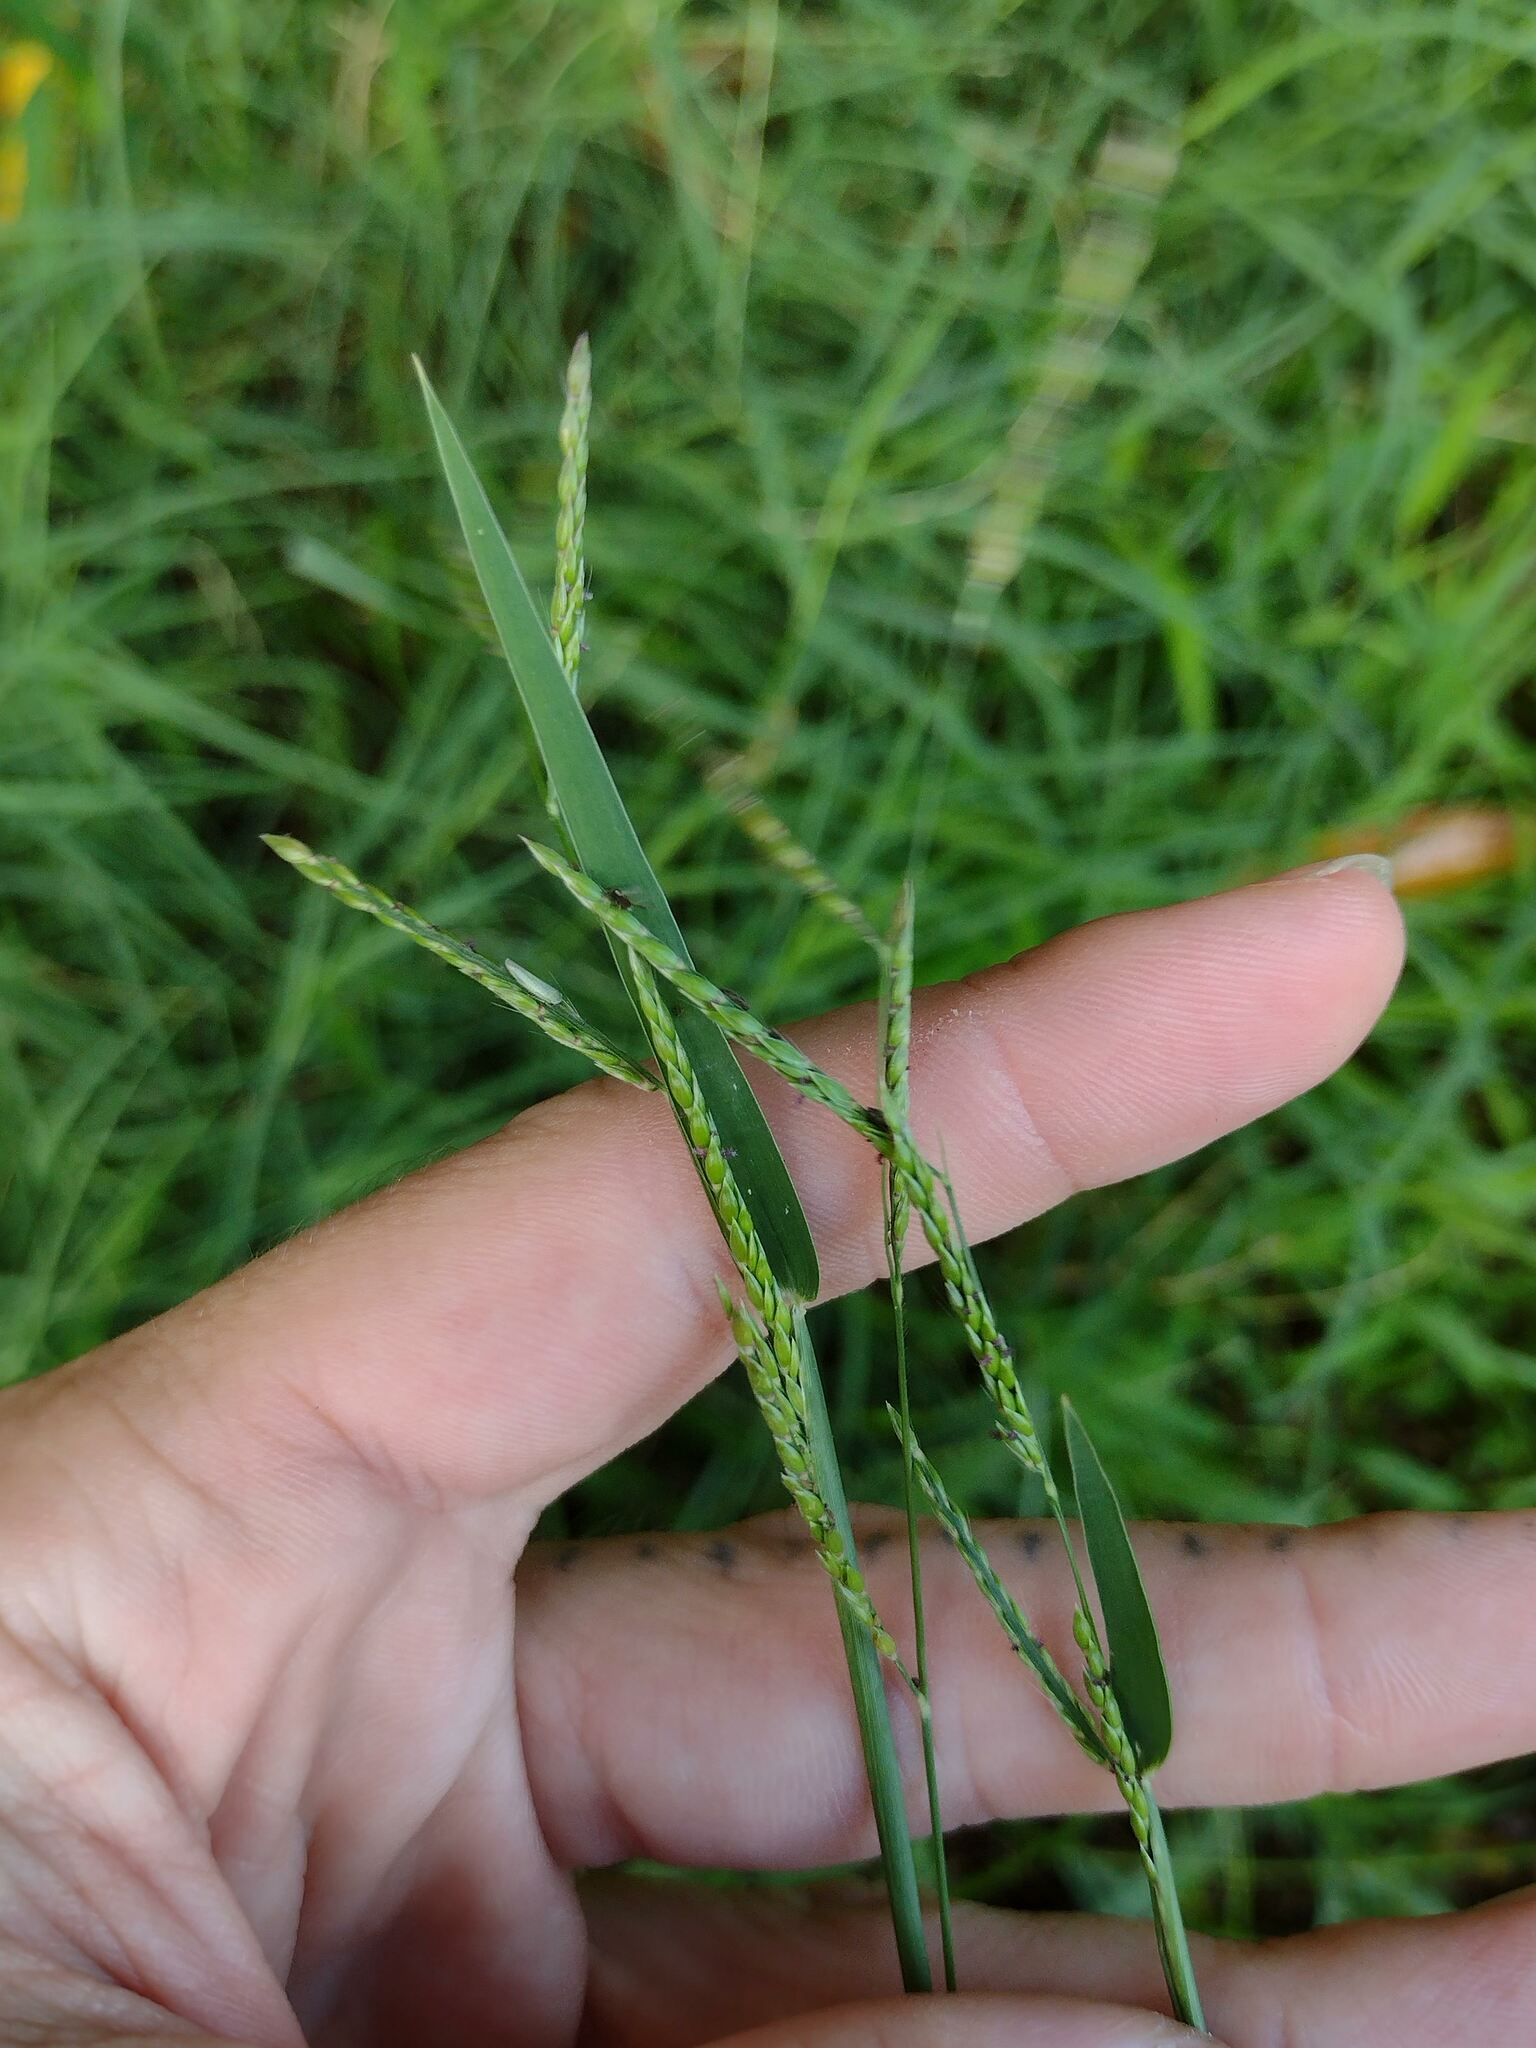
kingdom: Plantae
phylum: Tracheophyta
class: Liliopsida
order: Poales
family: Poaceae
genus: Eriochloa
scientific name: Eriochloa procera
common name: Spring grass
